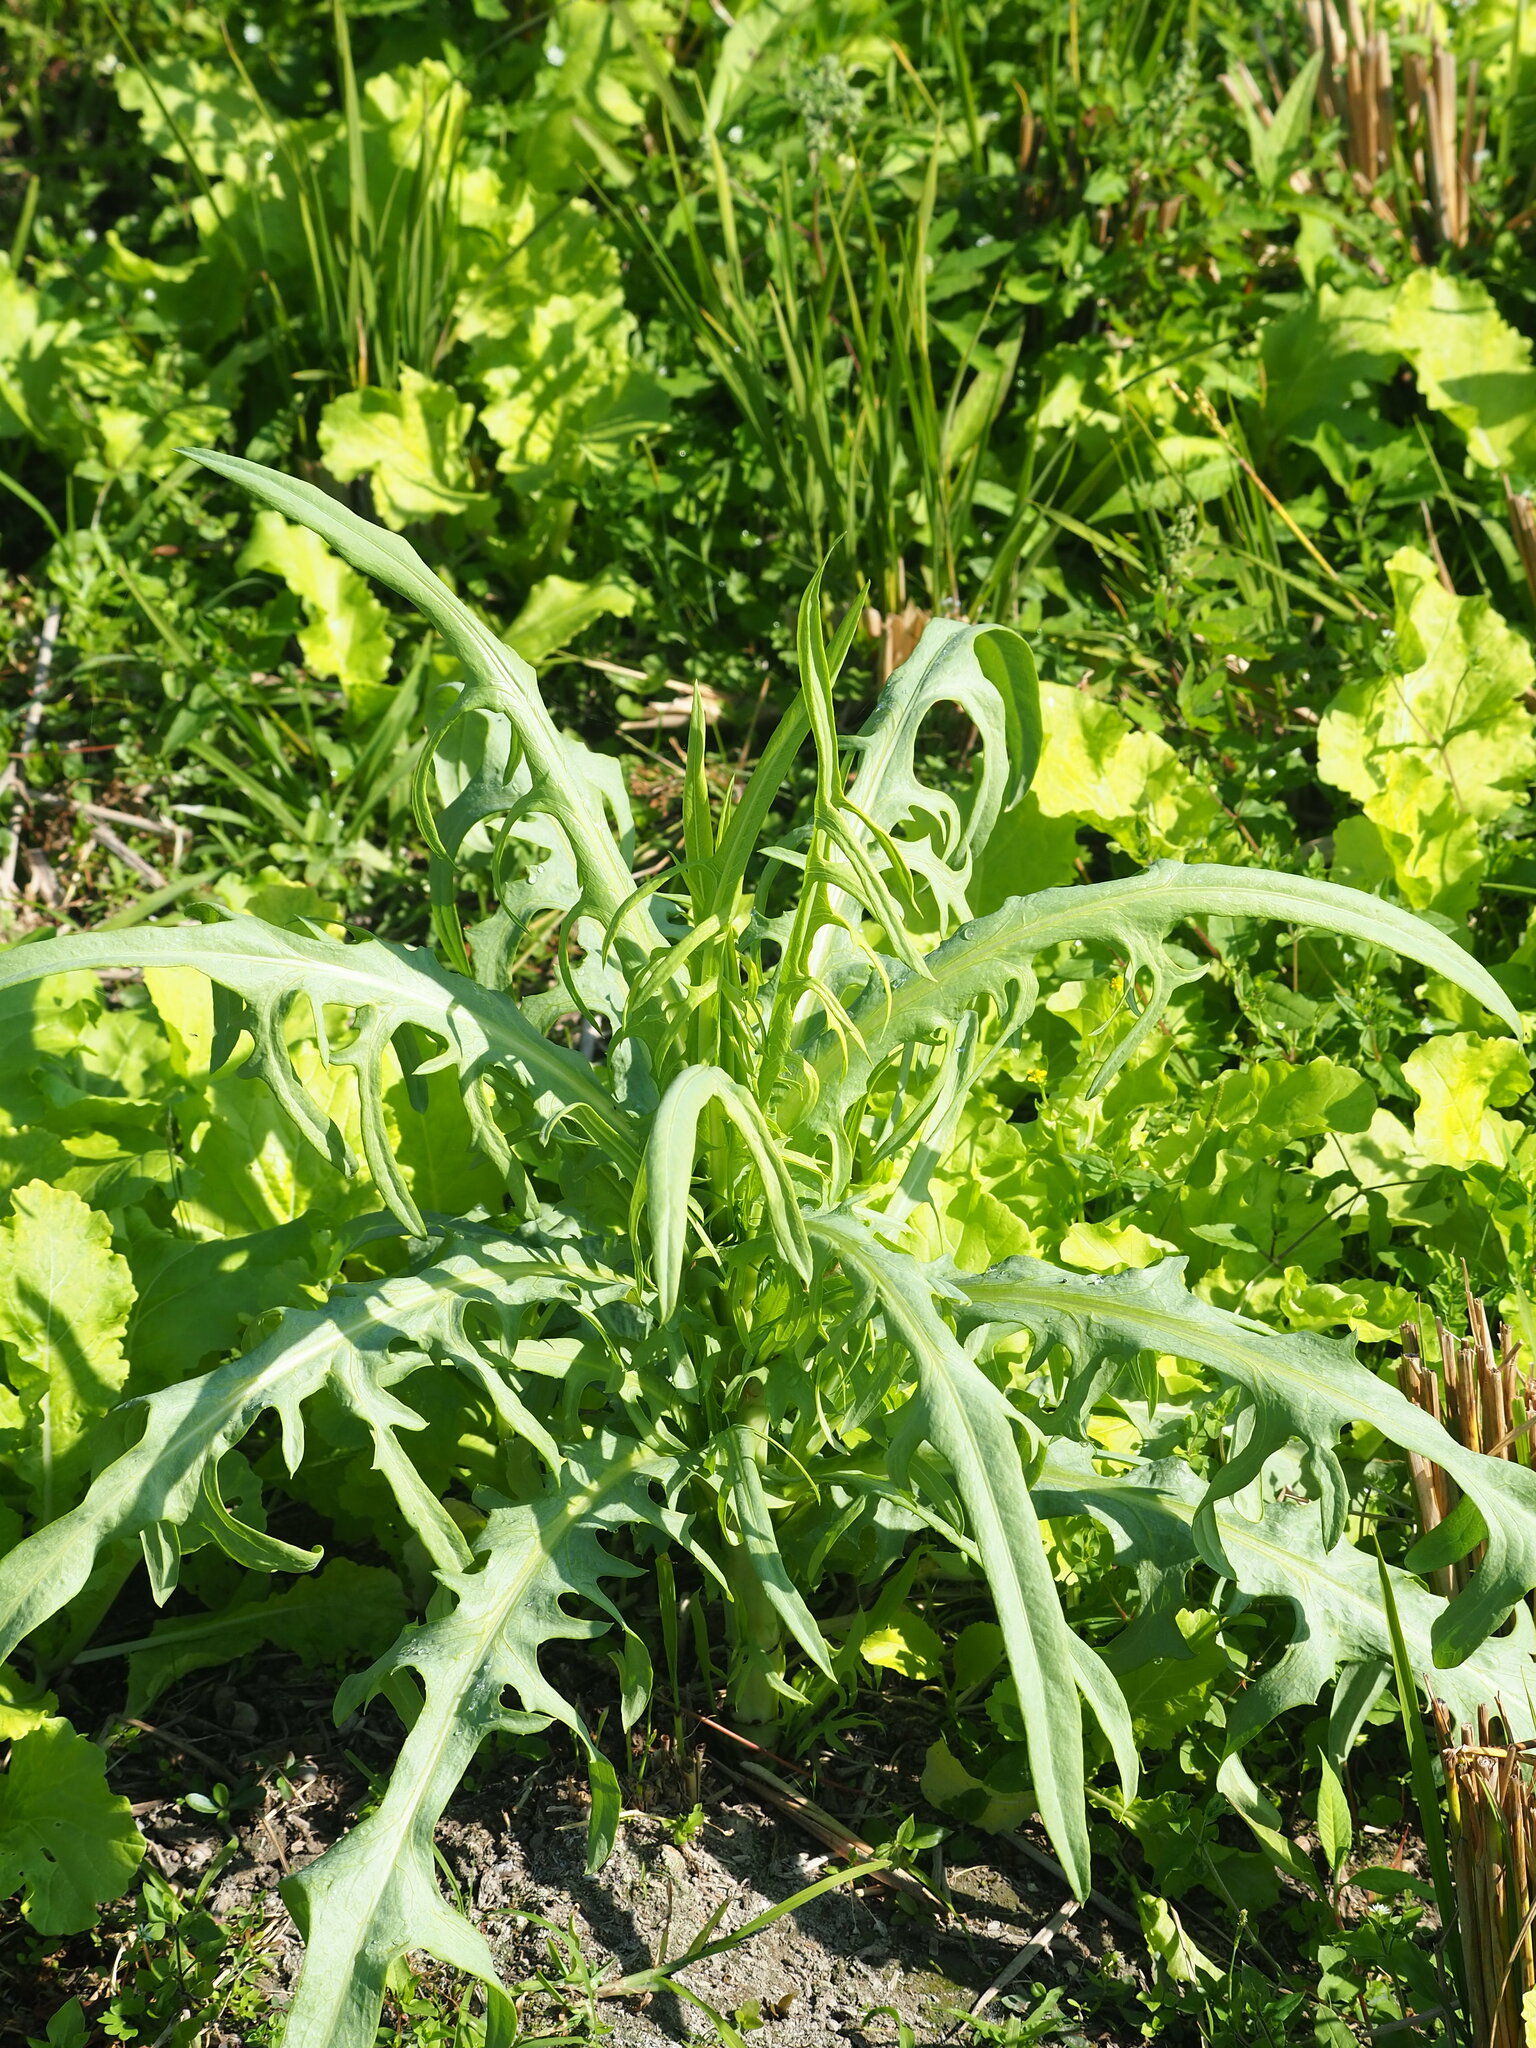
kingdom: Plantae
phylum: Tracheophyta
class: Magnoliopsida
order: Asterales
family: Asteraceae
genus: Lactuca
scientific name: Lactuca indica
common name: Wild lettuce
